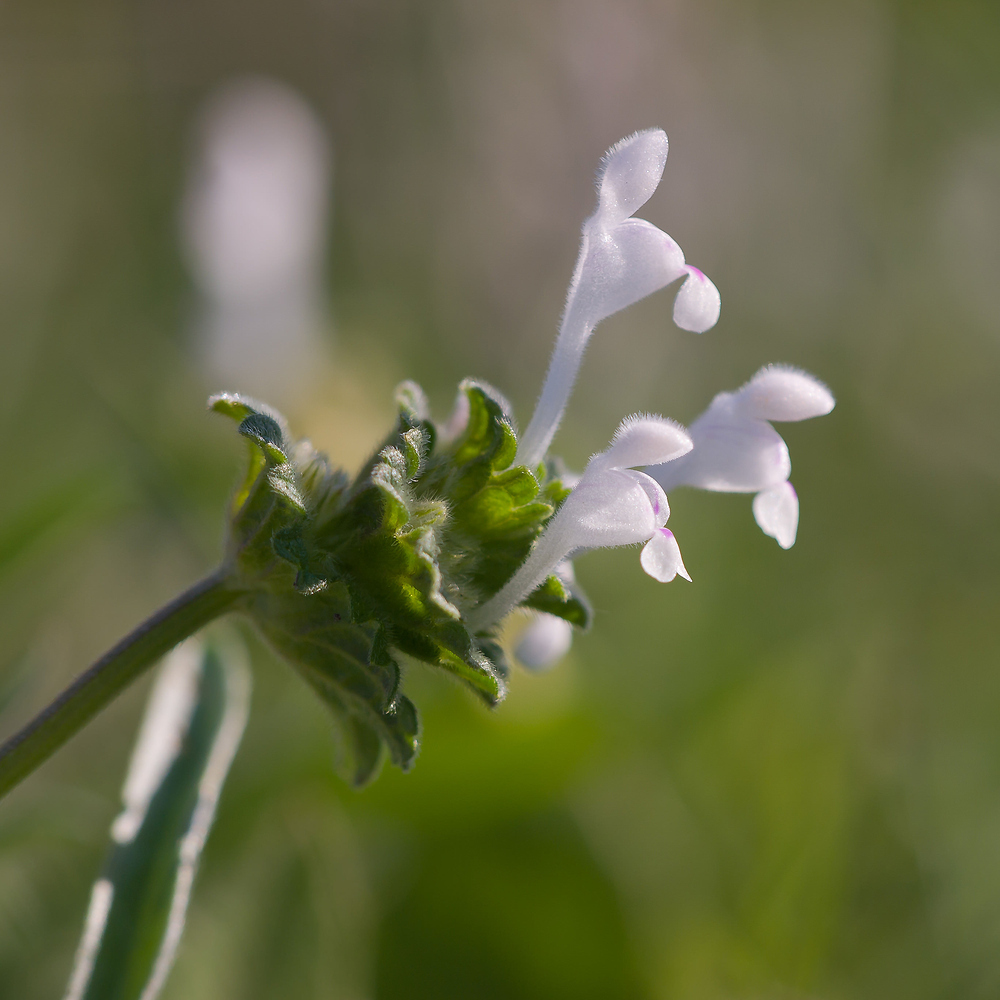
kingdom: Plantae
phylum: Tracheophyta
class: Magnoliopsida
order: Lamiales
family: Lamiaceae
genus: Lamium
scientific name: Lamium amplexicaule
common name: Henbit dead-nettle
